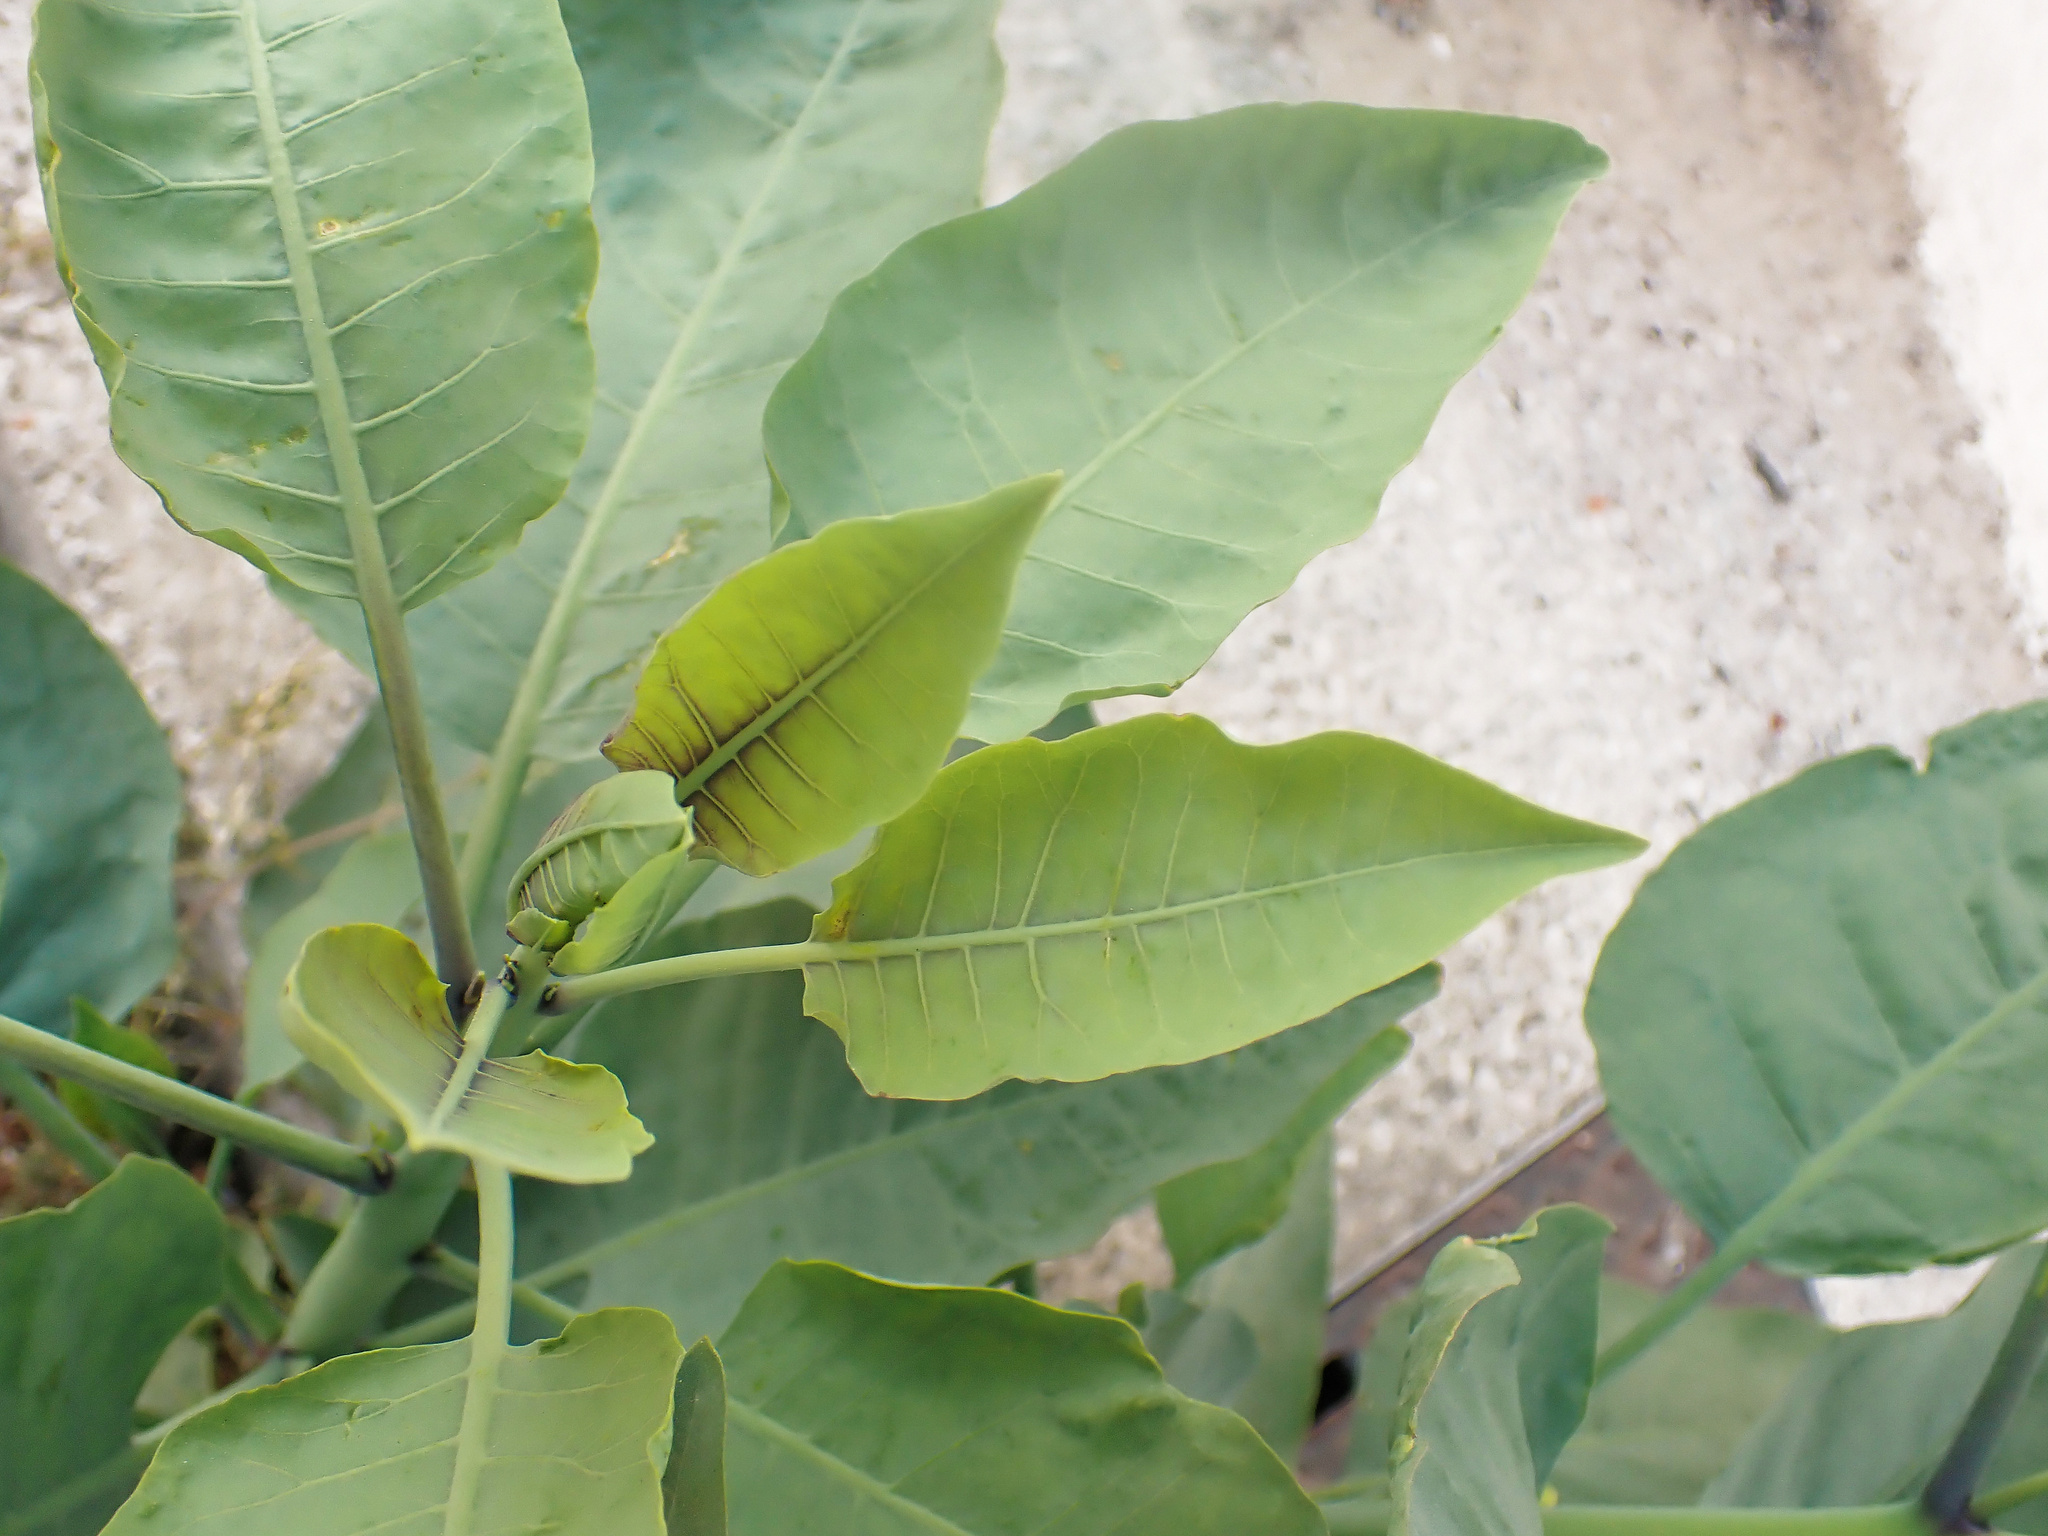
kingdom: Plantae
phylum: Tracheophyta
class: Magnoliopsida
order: Solanales
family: Solanaceae
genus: Nicotiana
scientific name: Nicotiana glauca
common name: Tree tobacco
